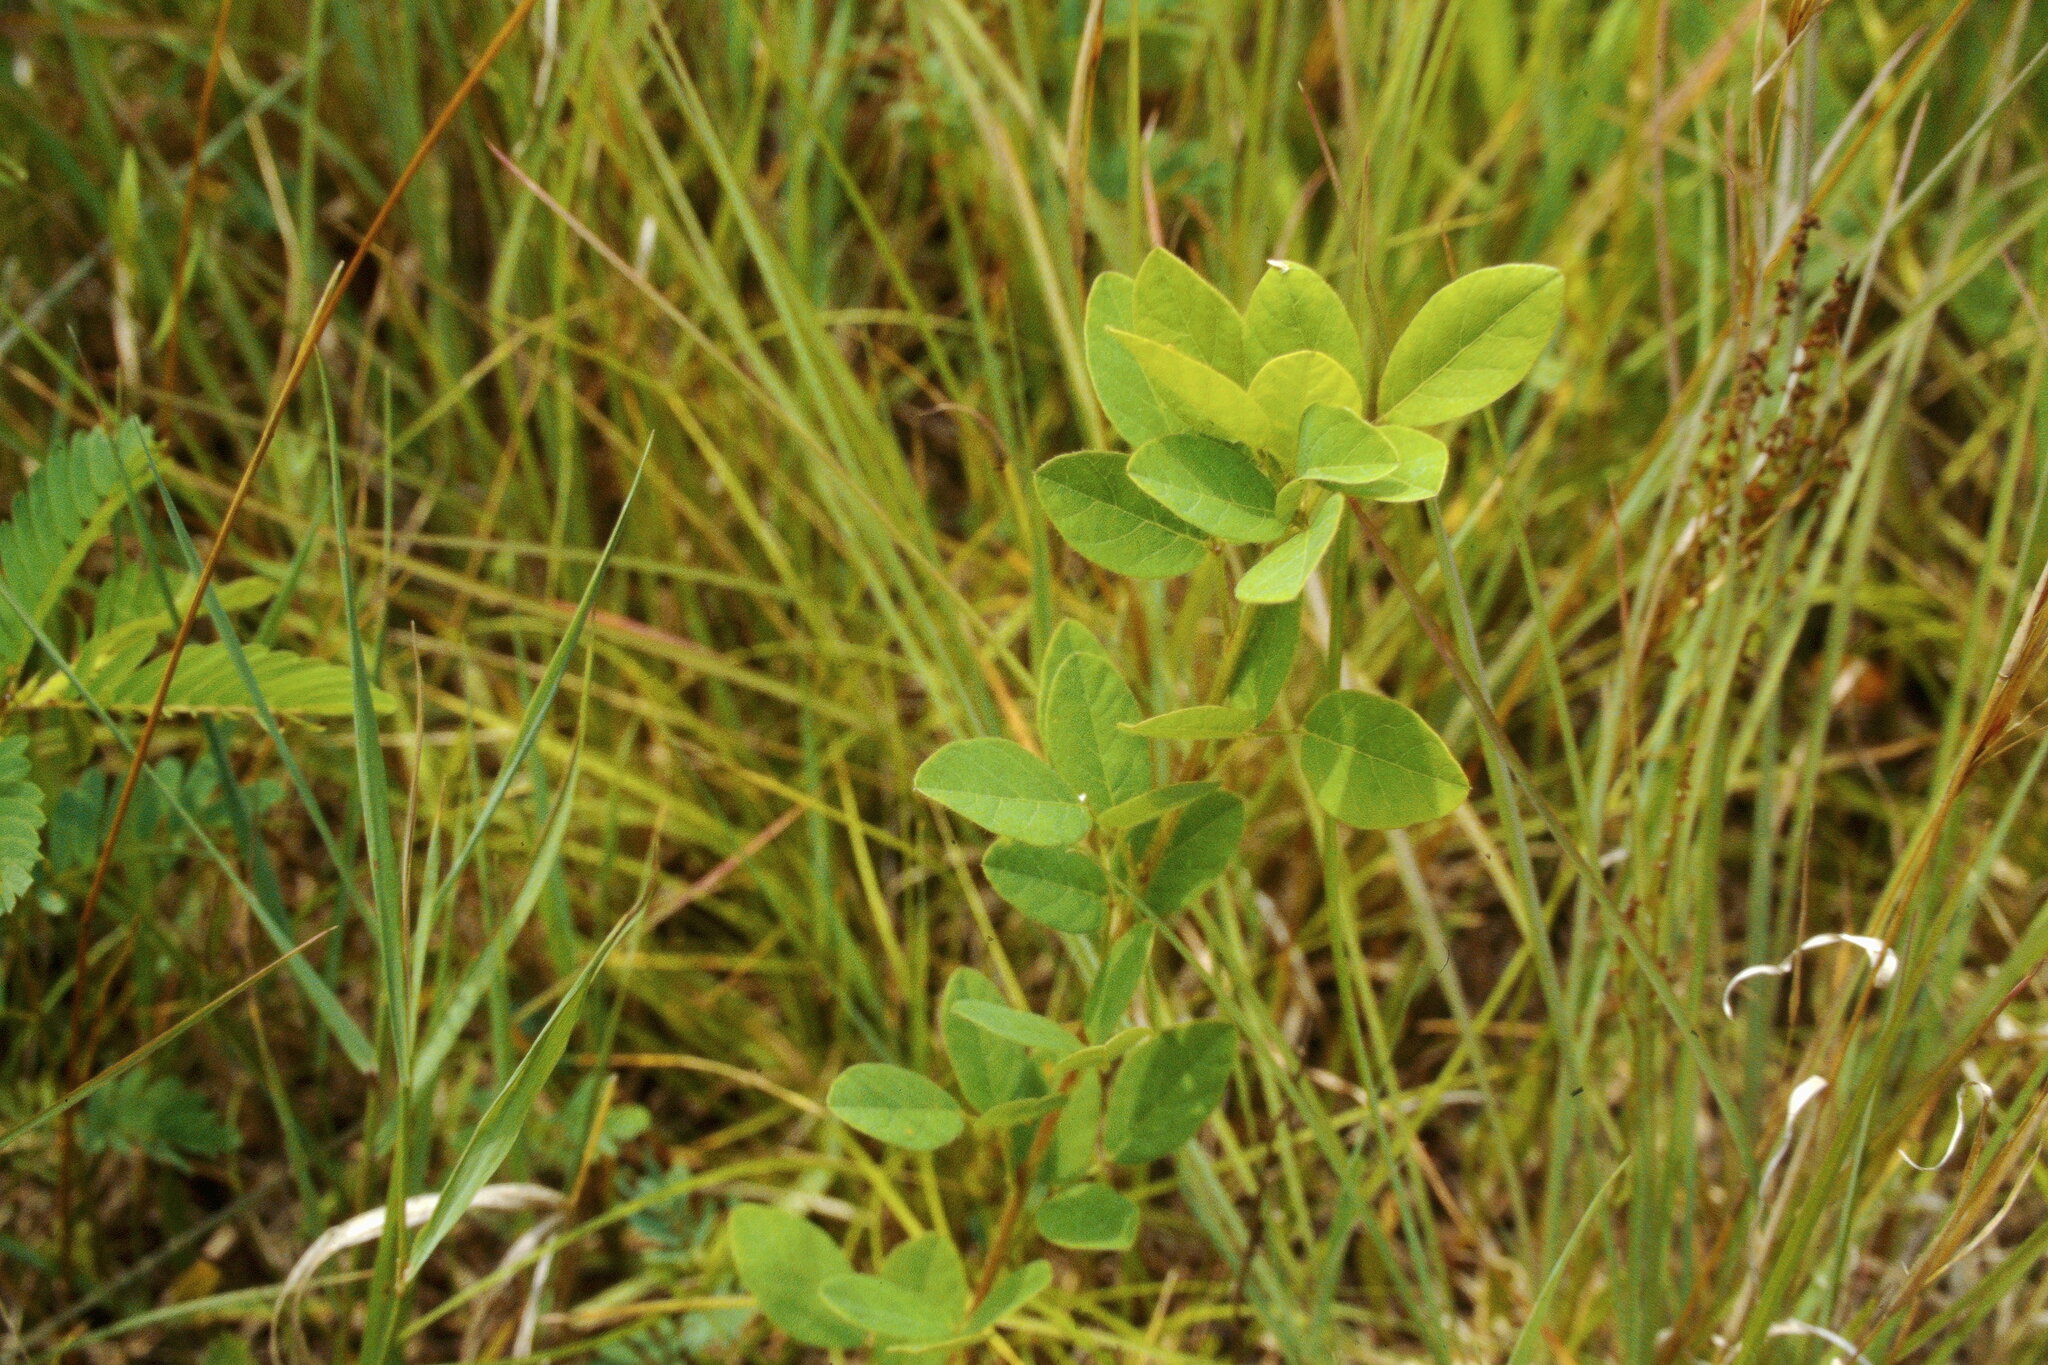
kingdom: Plantae
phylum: Tracheophyta
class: Magnoliopsida
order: Fabales
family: Fabaceae
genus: Lespedeza
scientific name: Lespedeza capitata
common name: Dusty clover
